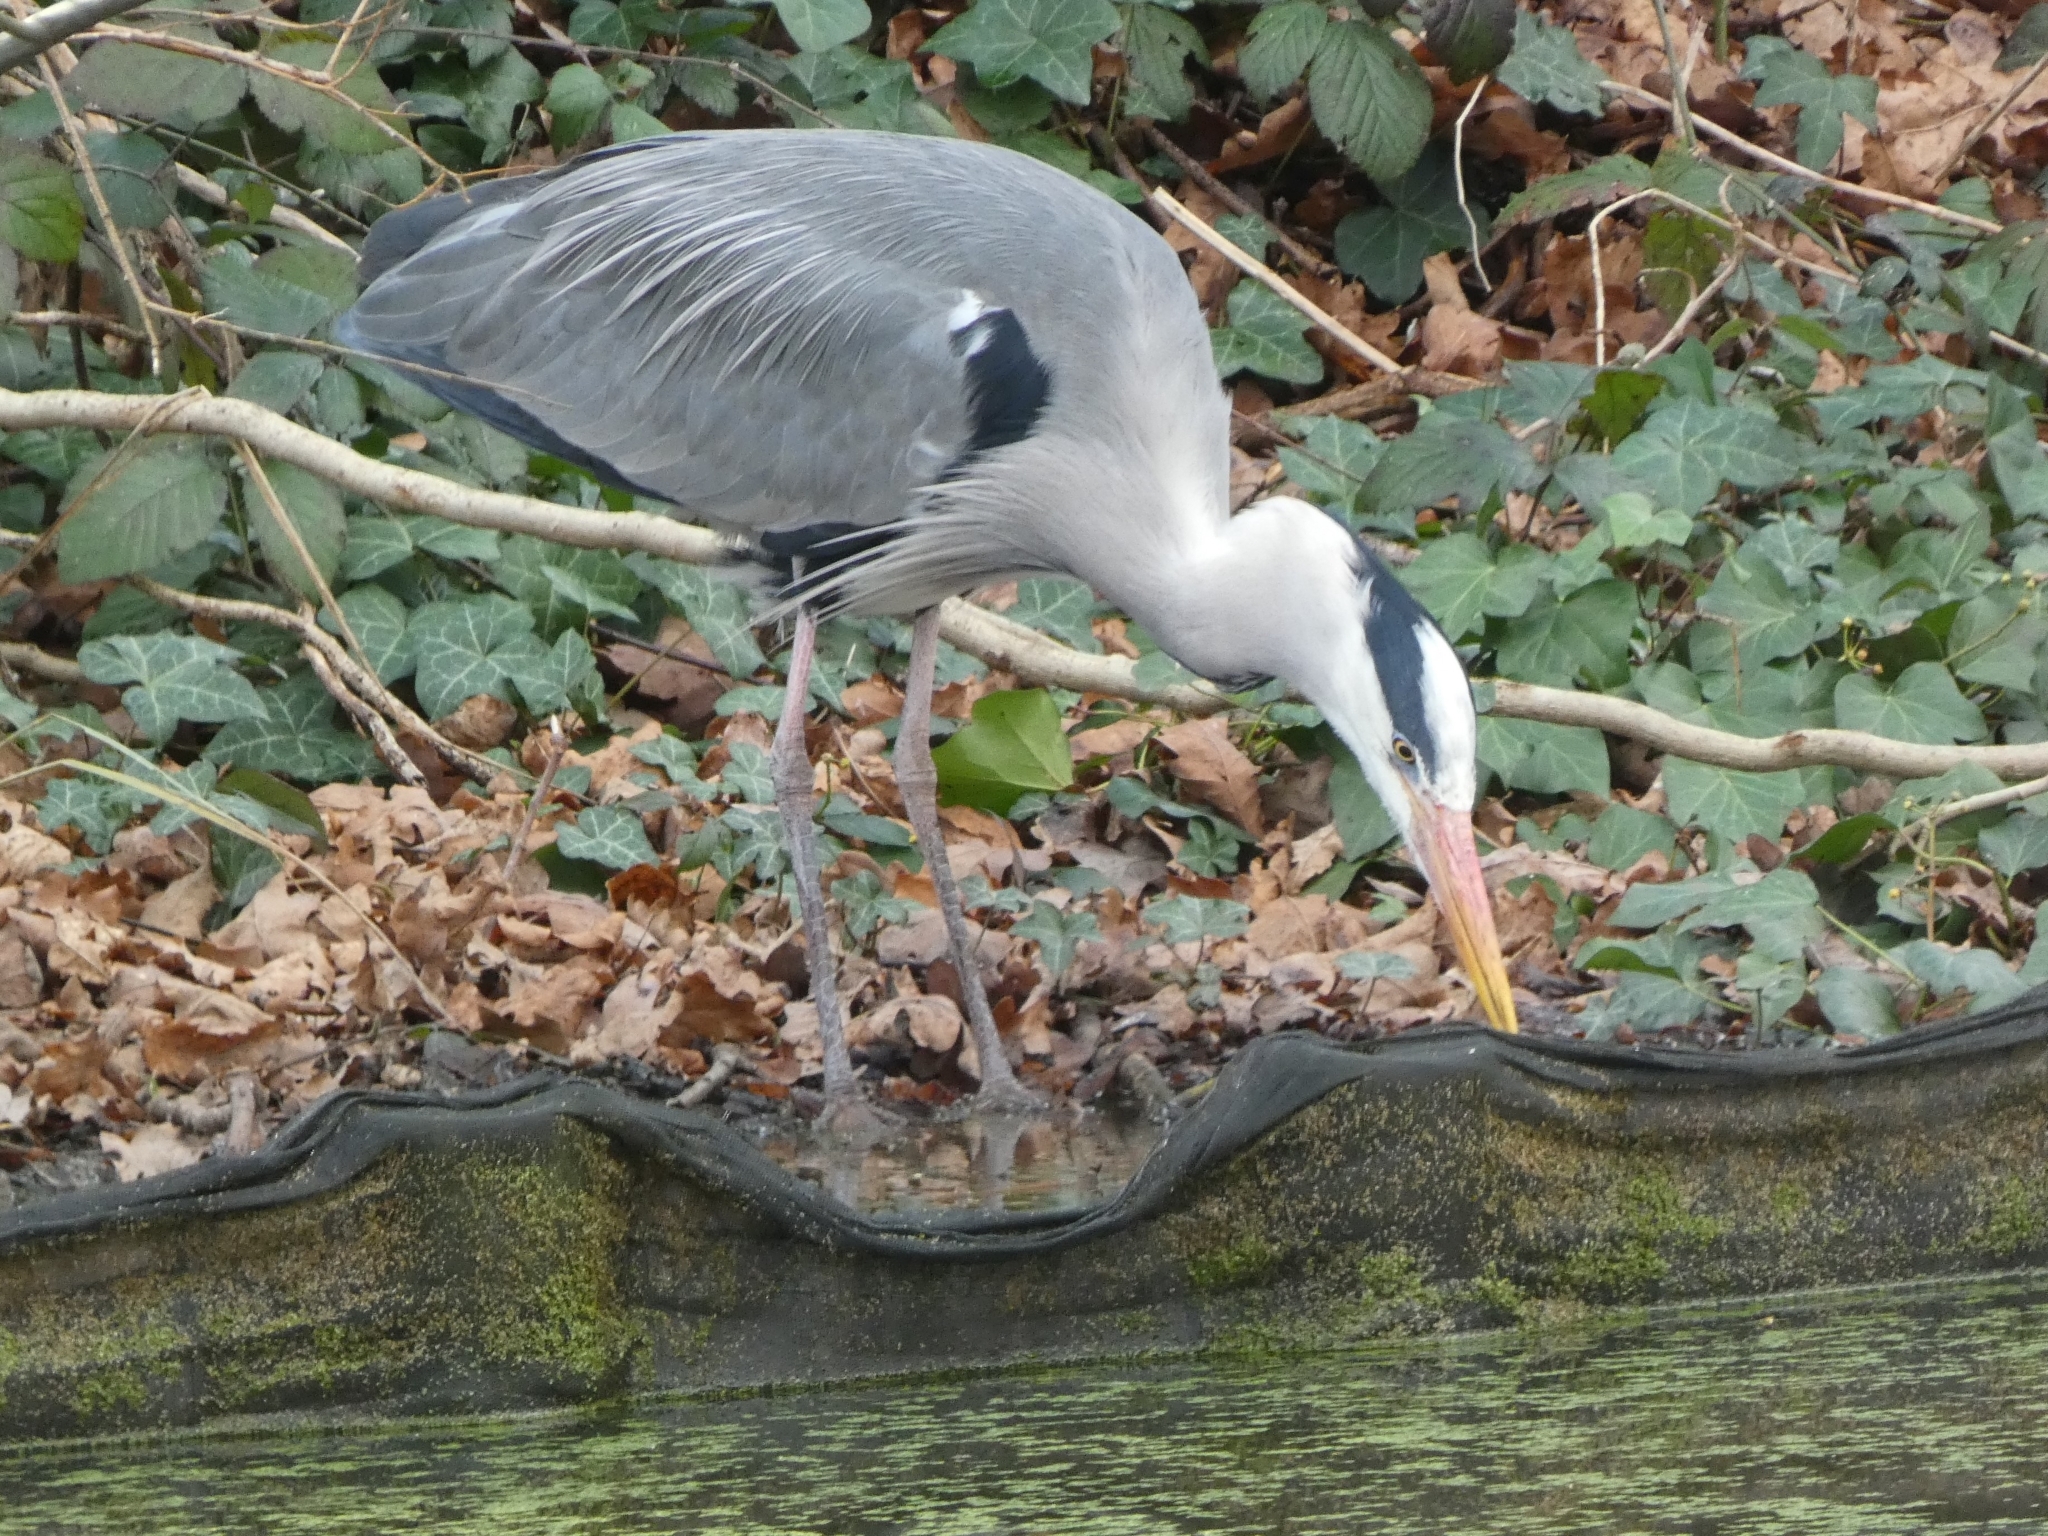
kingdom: Animalia
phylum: Chordata
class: Aves
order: Pelecaniformes
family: Ardeidae
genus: Ardea
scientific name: Ardea cinerea
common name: Grey heron
